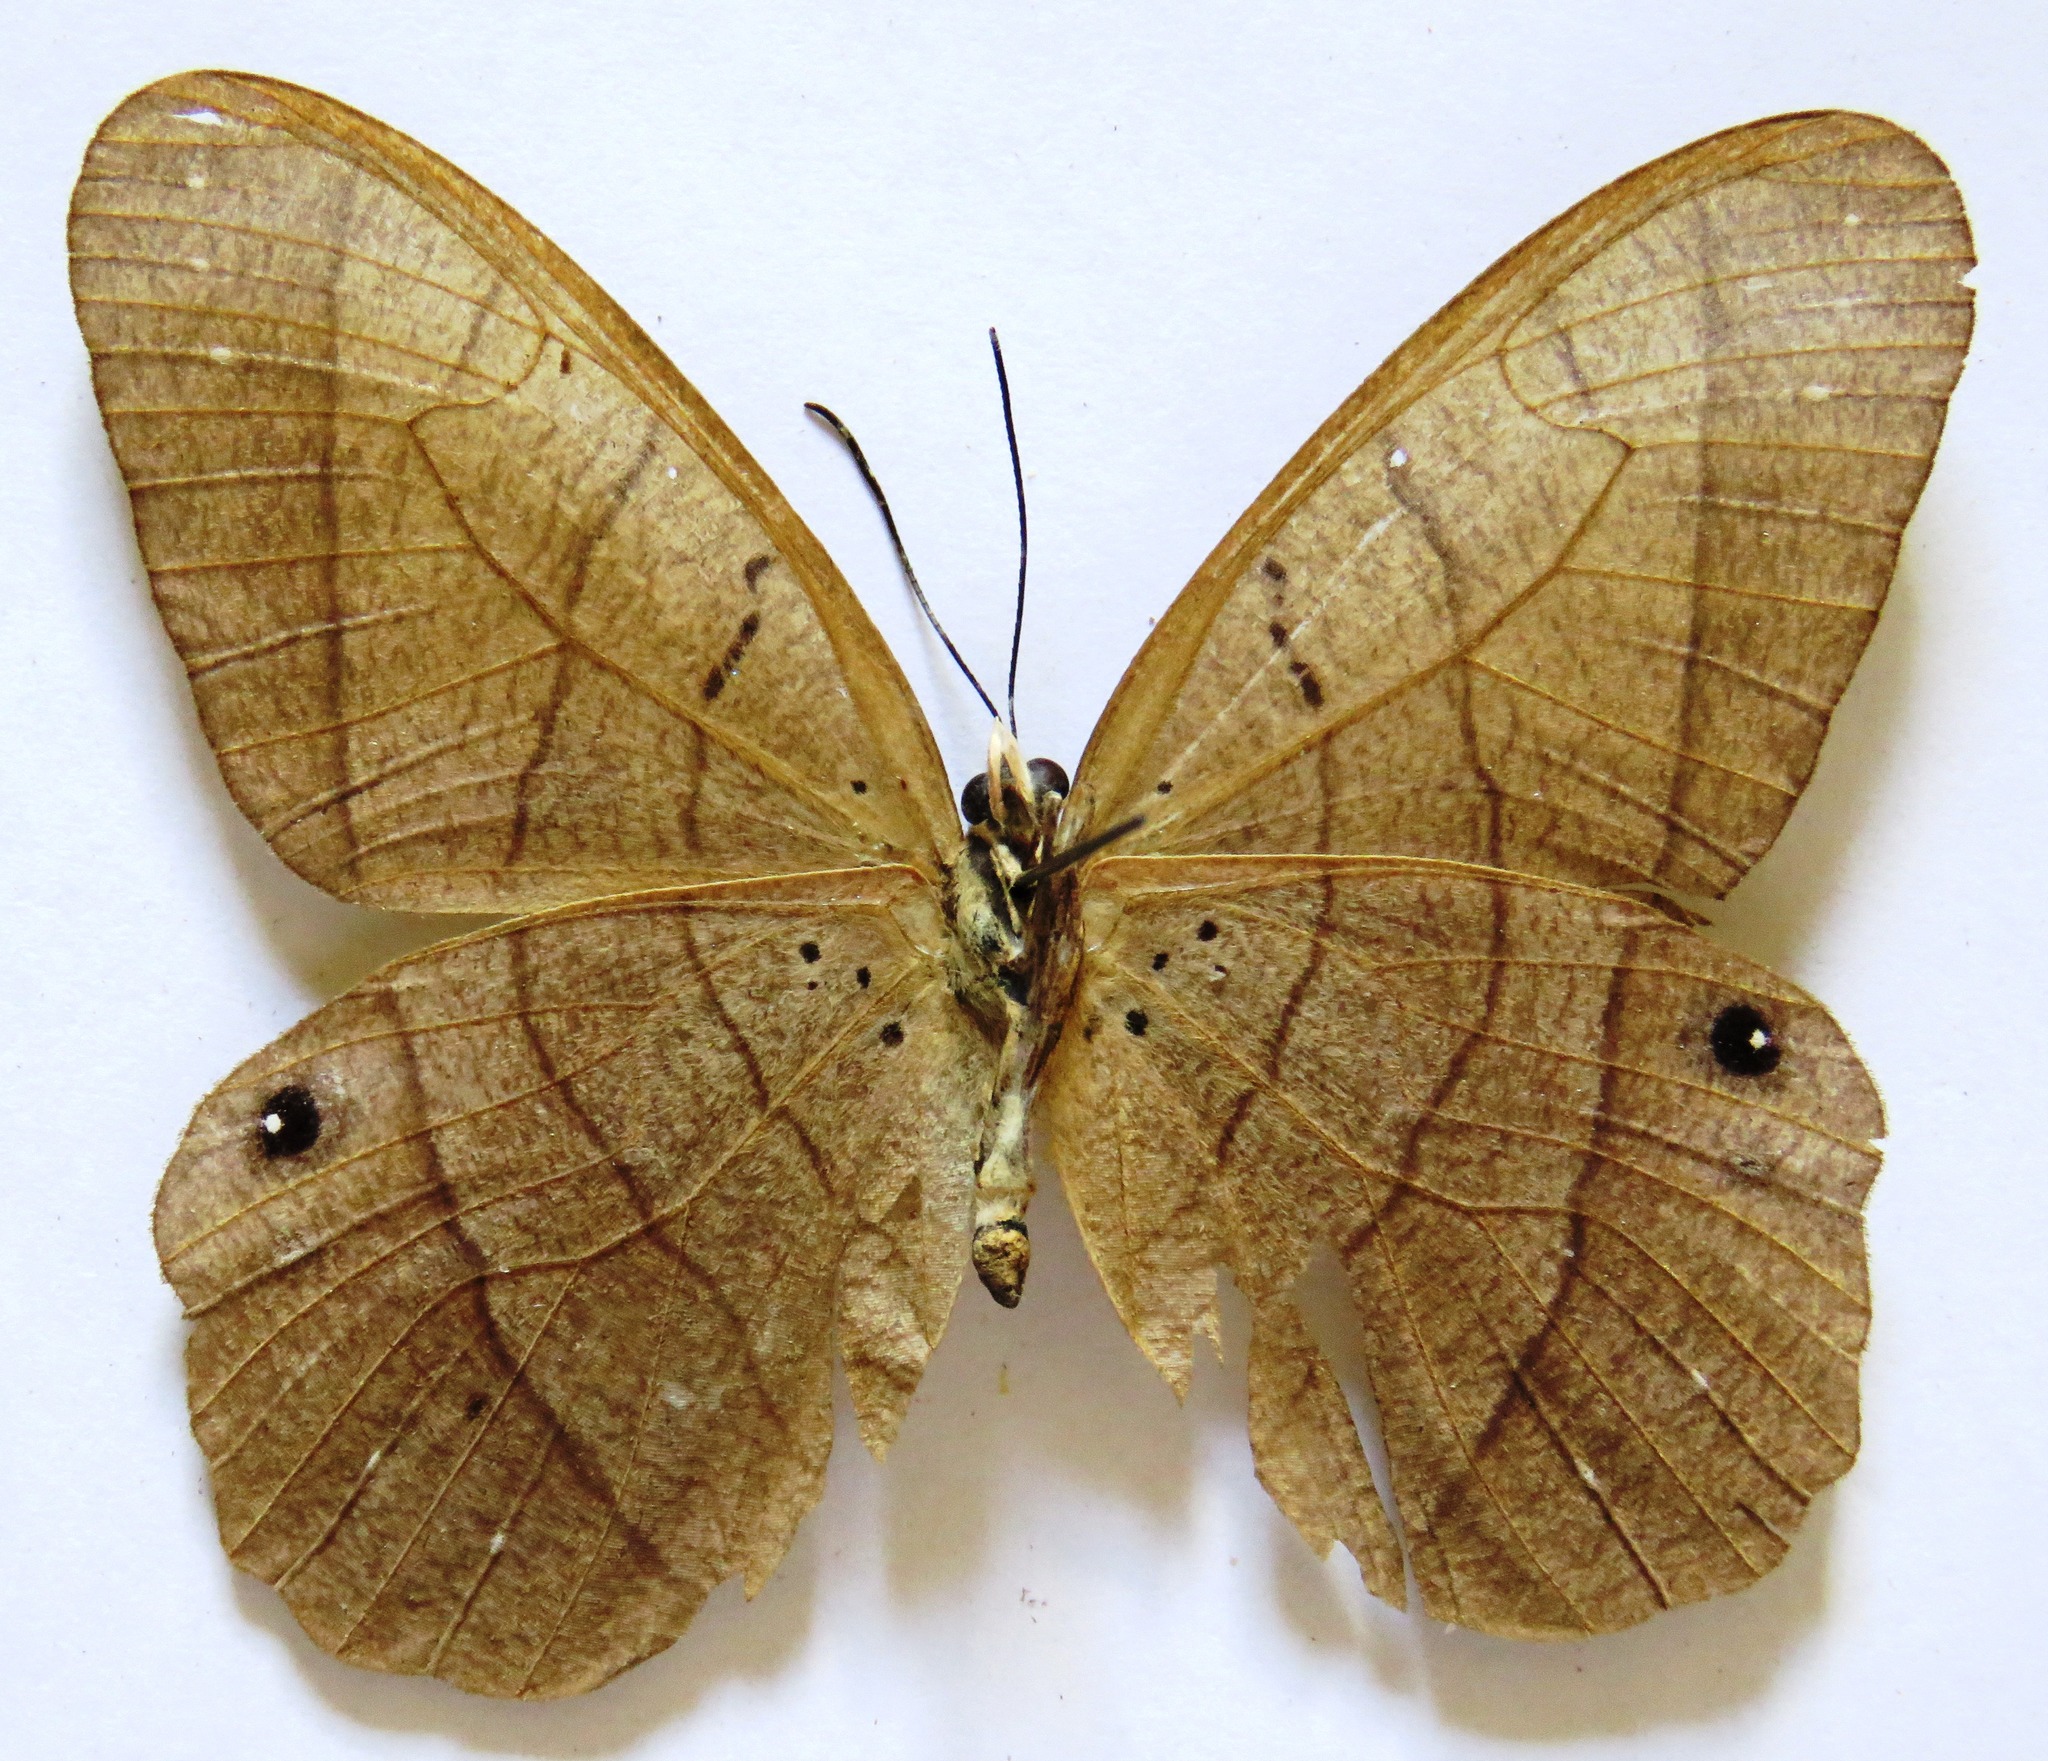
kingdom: Animalia
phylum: Arthropoda
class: Insecta
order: Lepidoptera
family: Nymphalidae
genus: Pierella
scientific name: Pierella luna
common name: Moon satyr
